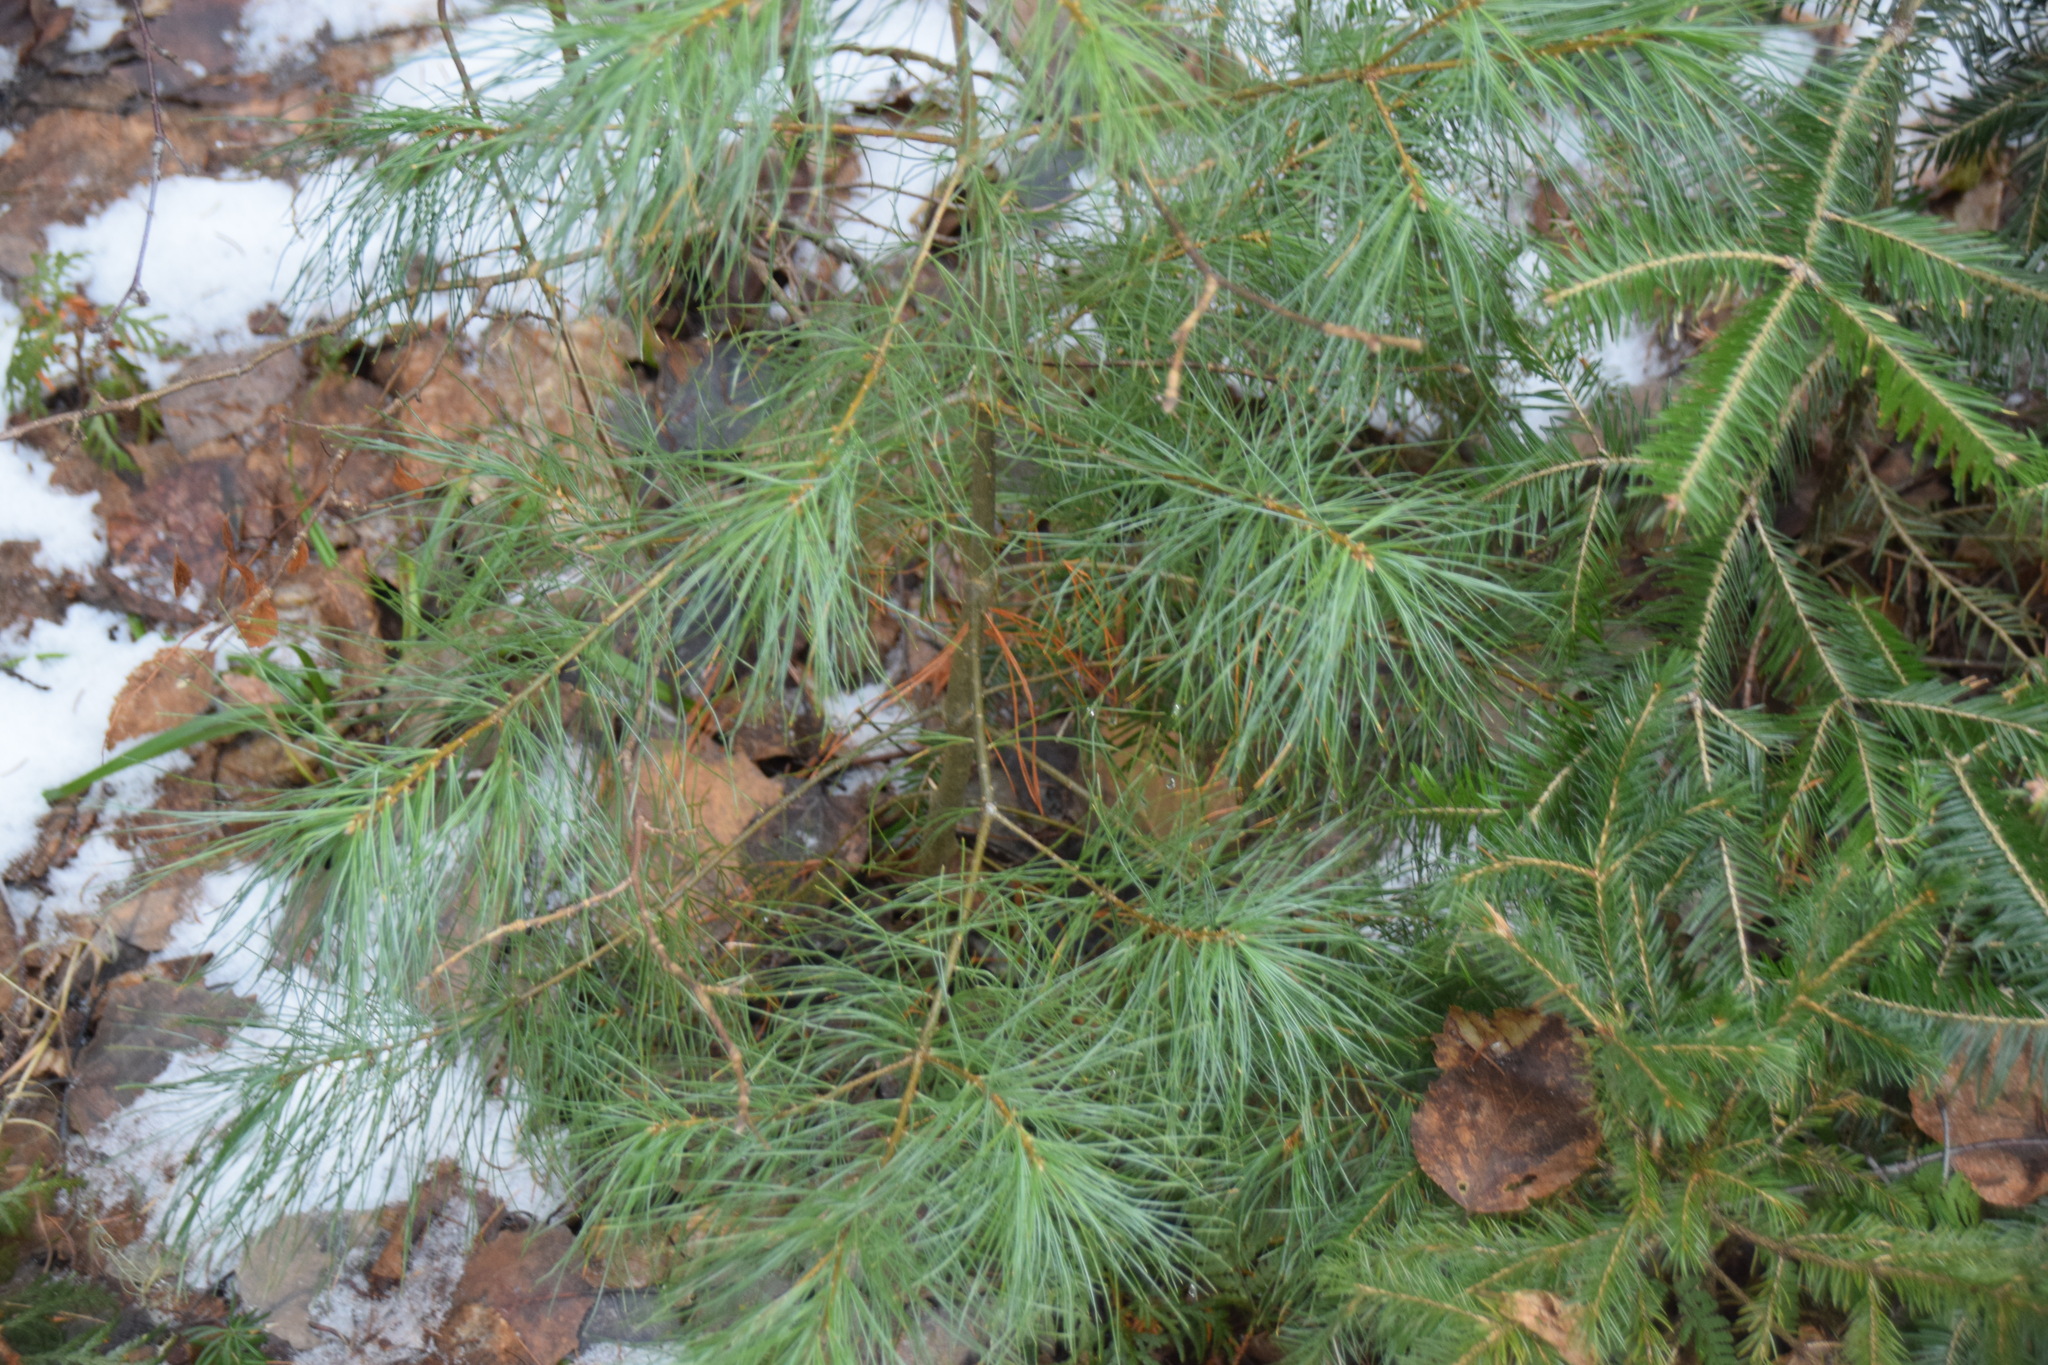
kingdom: Plantae
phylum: Tracheophyta
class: Pinopsida
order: Pinales
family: Pinaceae
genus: Pinus
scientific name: Pinus strobus
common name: Weymouth pine
